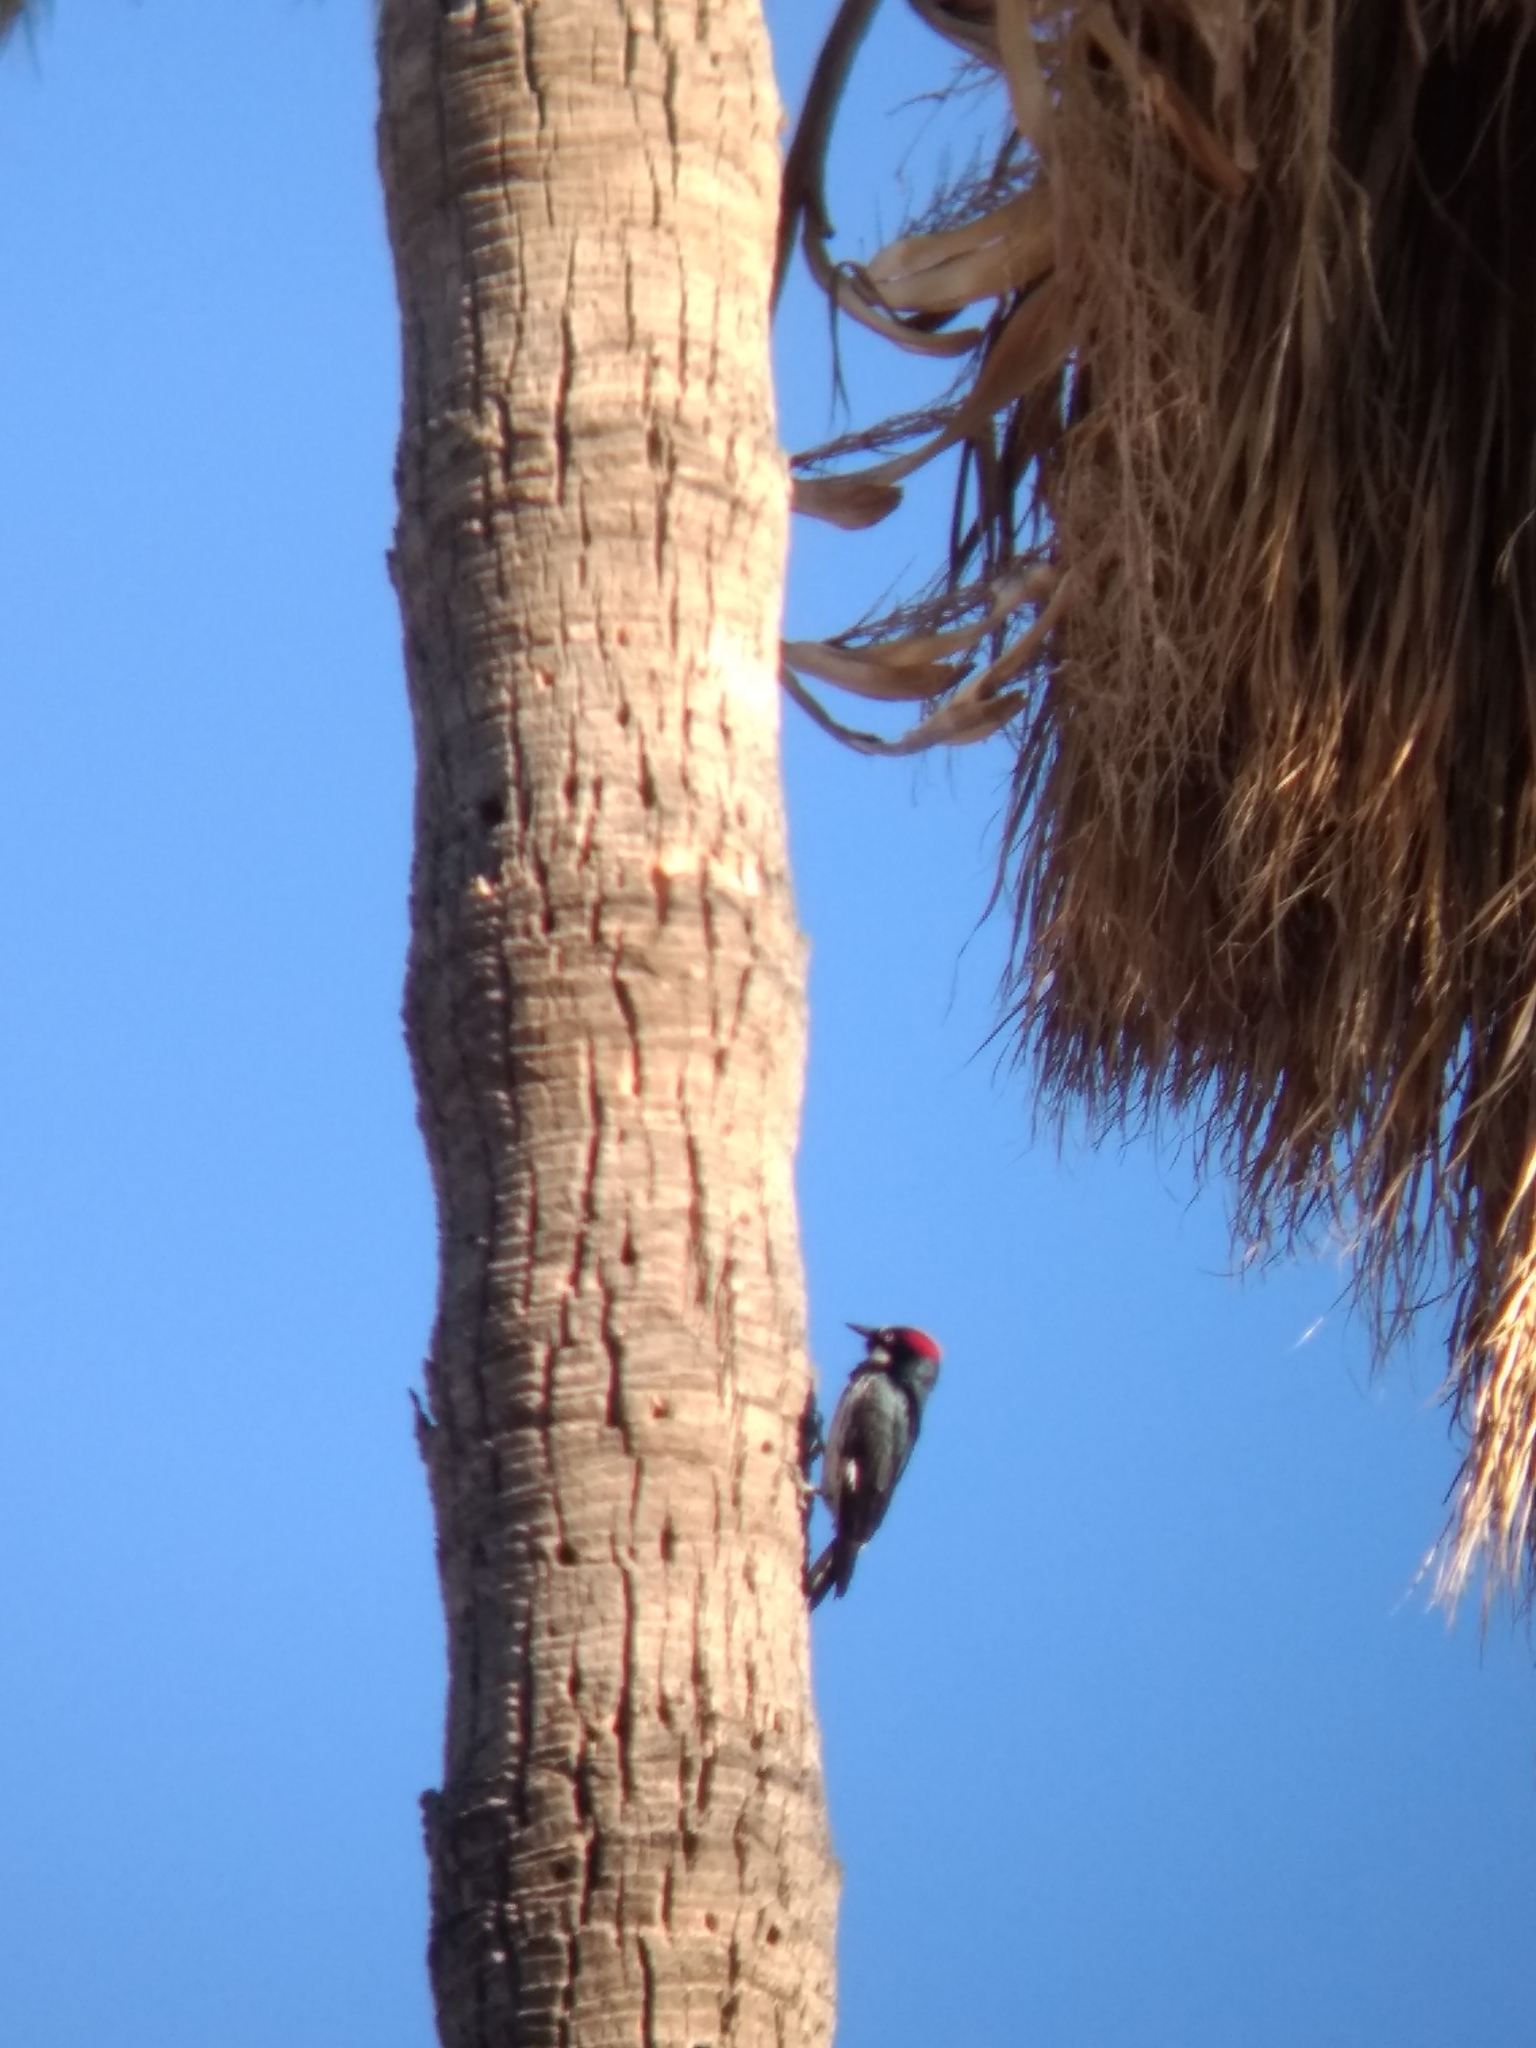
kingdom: Animalia
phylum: Chordata
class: Aves
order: Piciformes
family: Picidae
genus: Melanerpes
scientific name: Melanerpes formicivorus
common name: Acorn woodpecker
